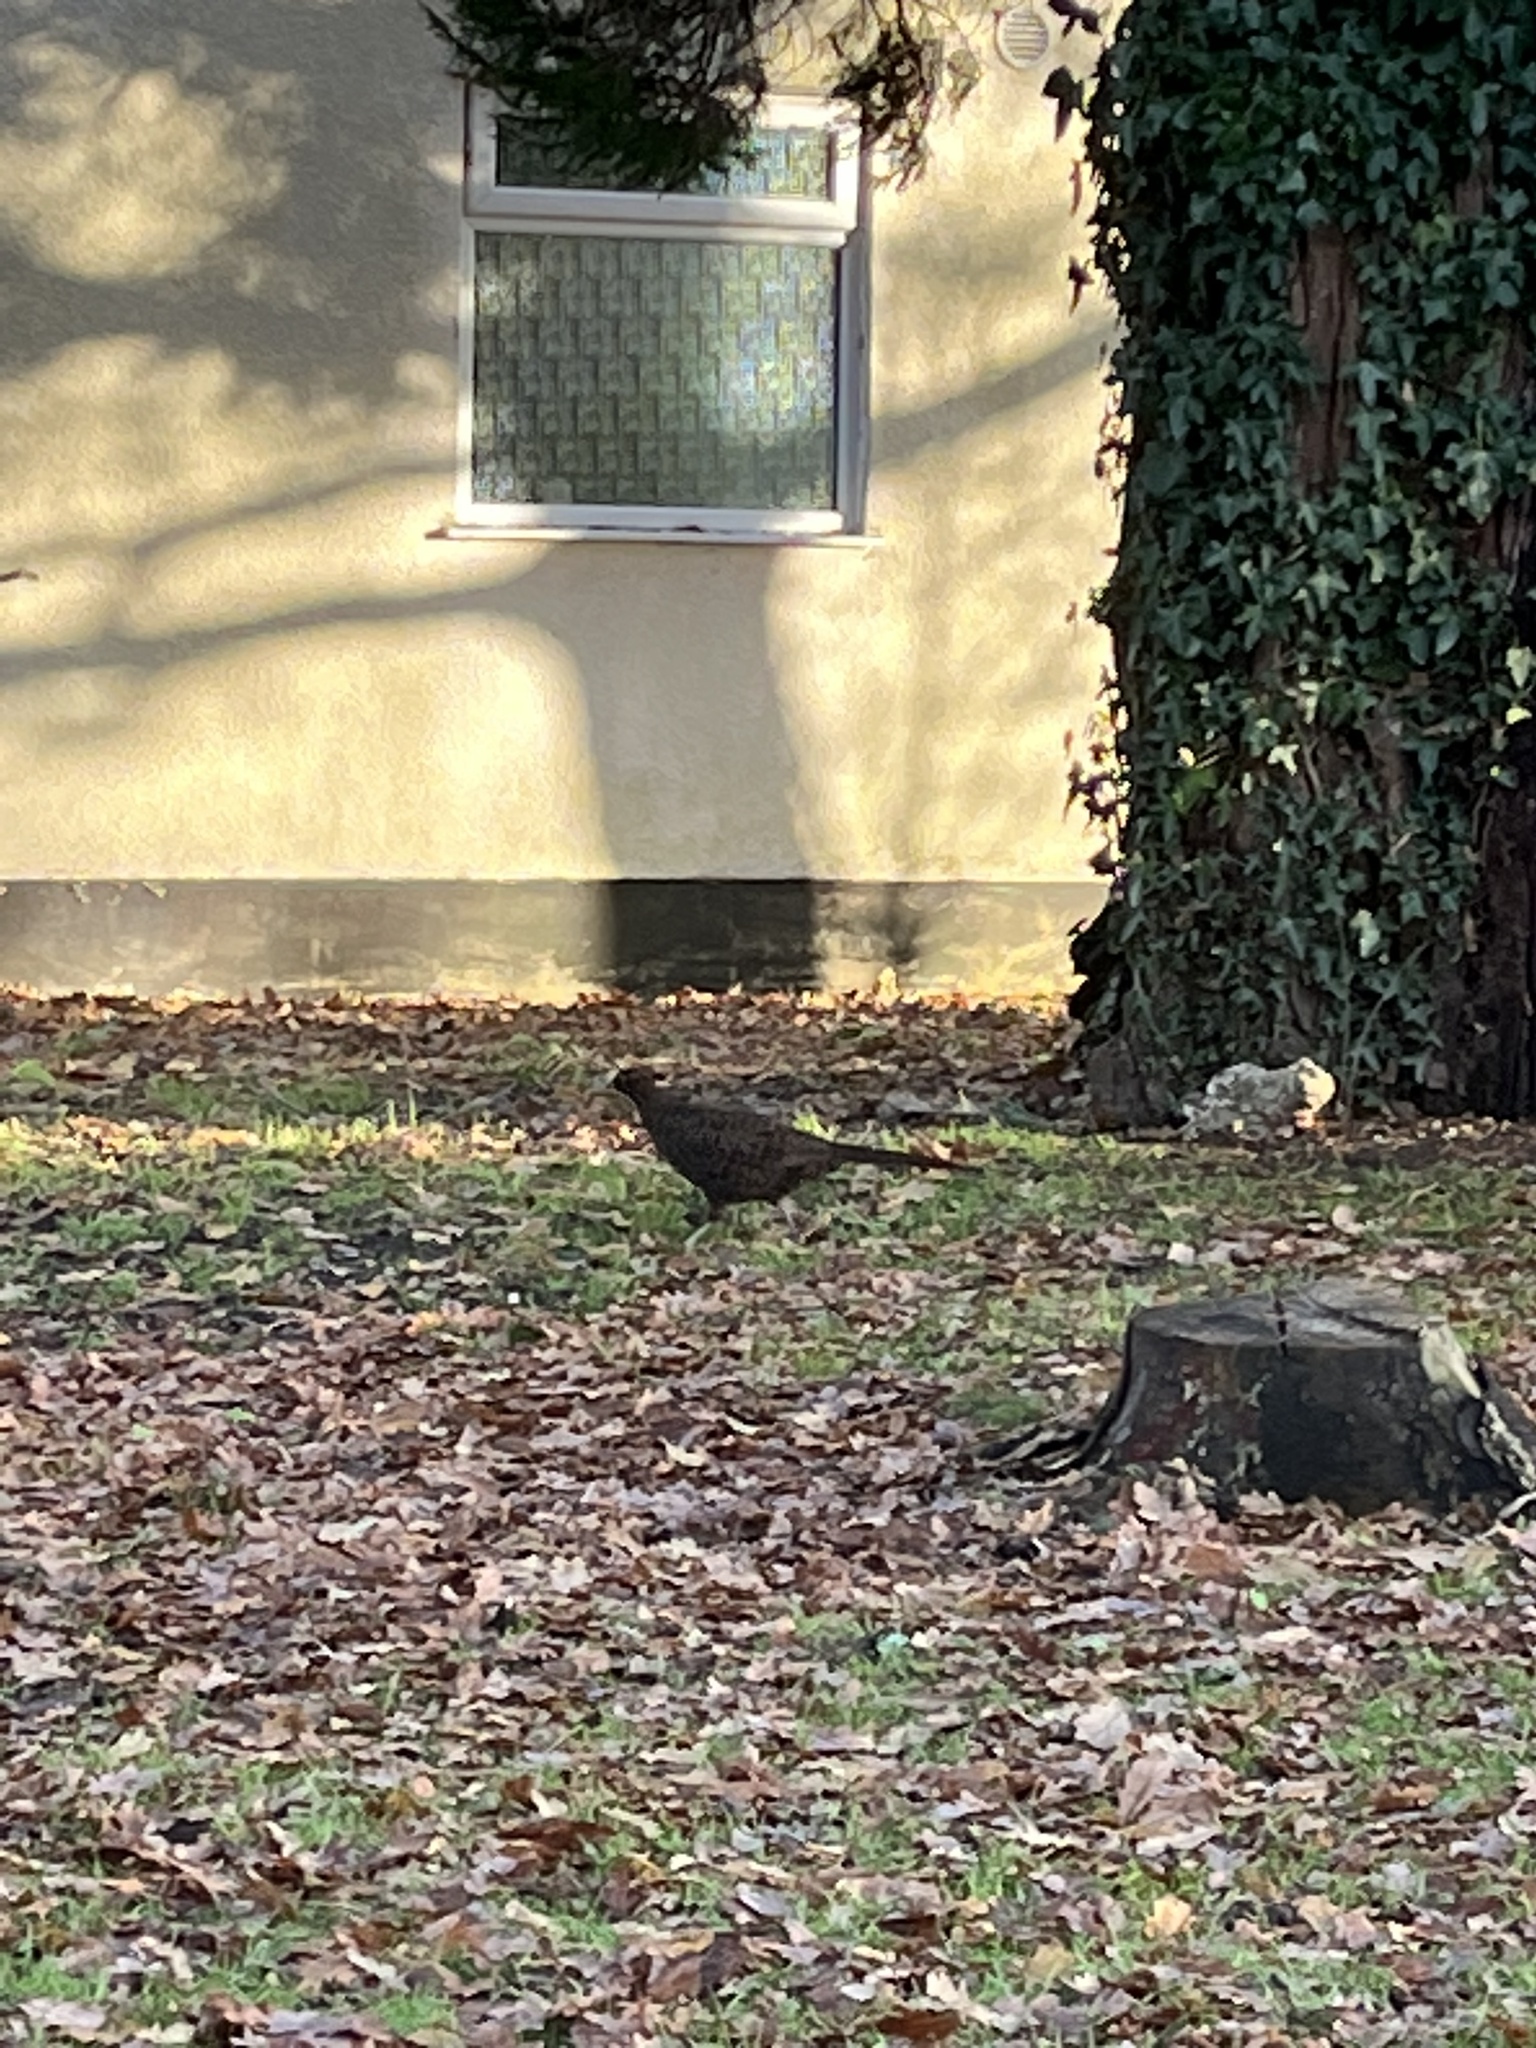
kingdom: Animalia
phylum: Chordata
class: Aves
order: Galliformes
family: Phasianidae
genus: Phasianus
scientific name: Phasianus colchicus
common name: Common pheasant
